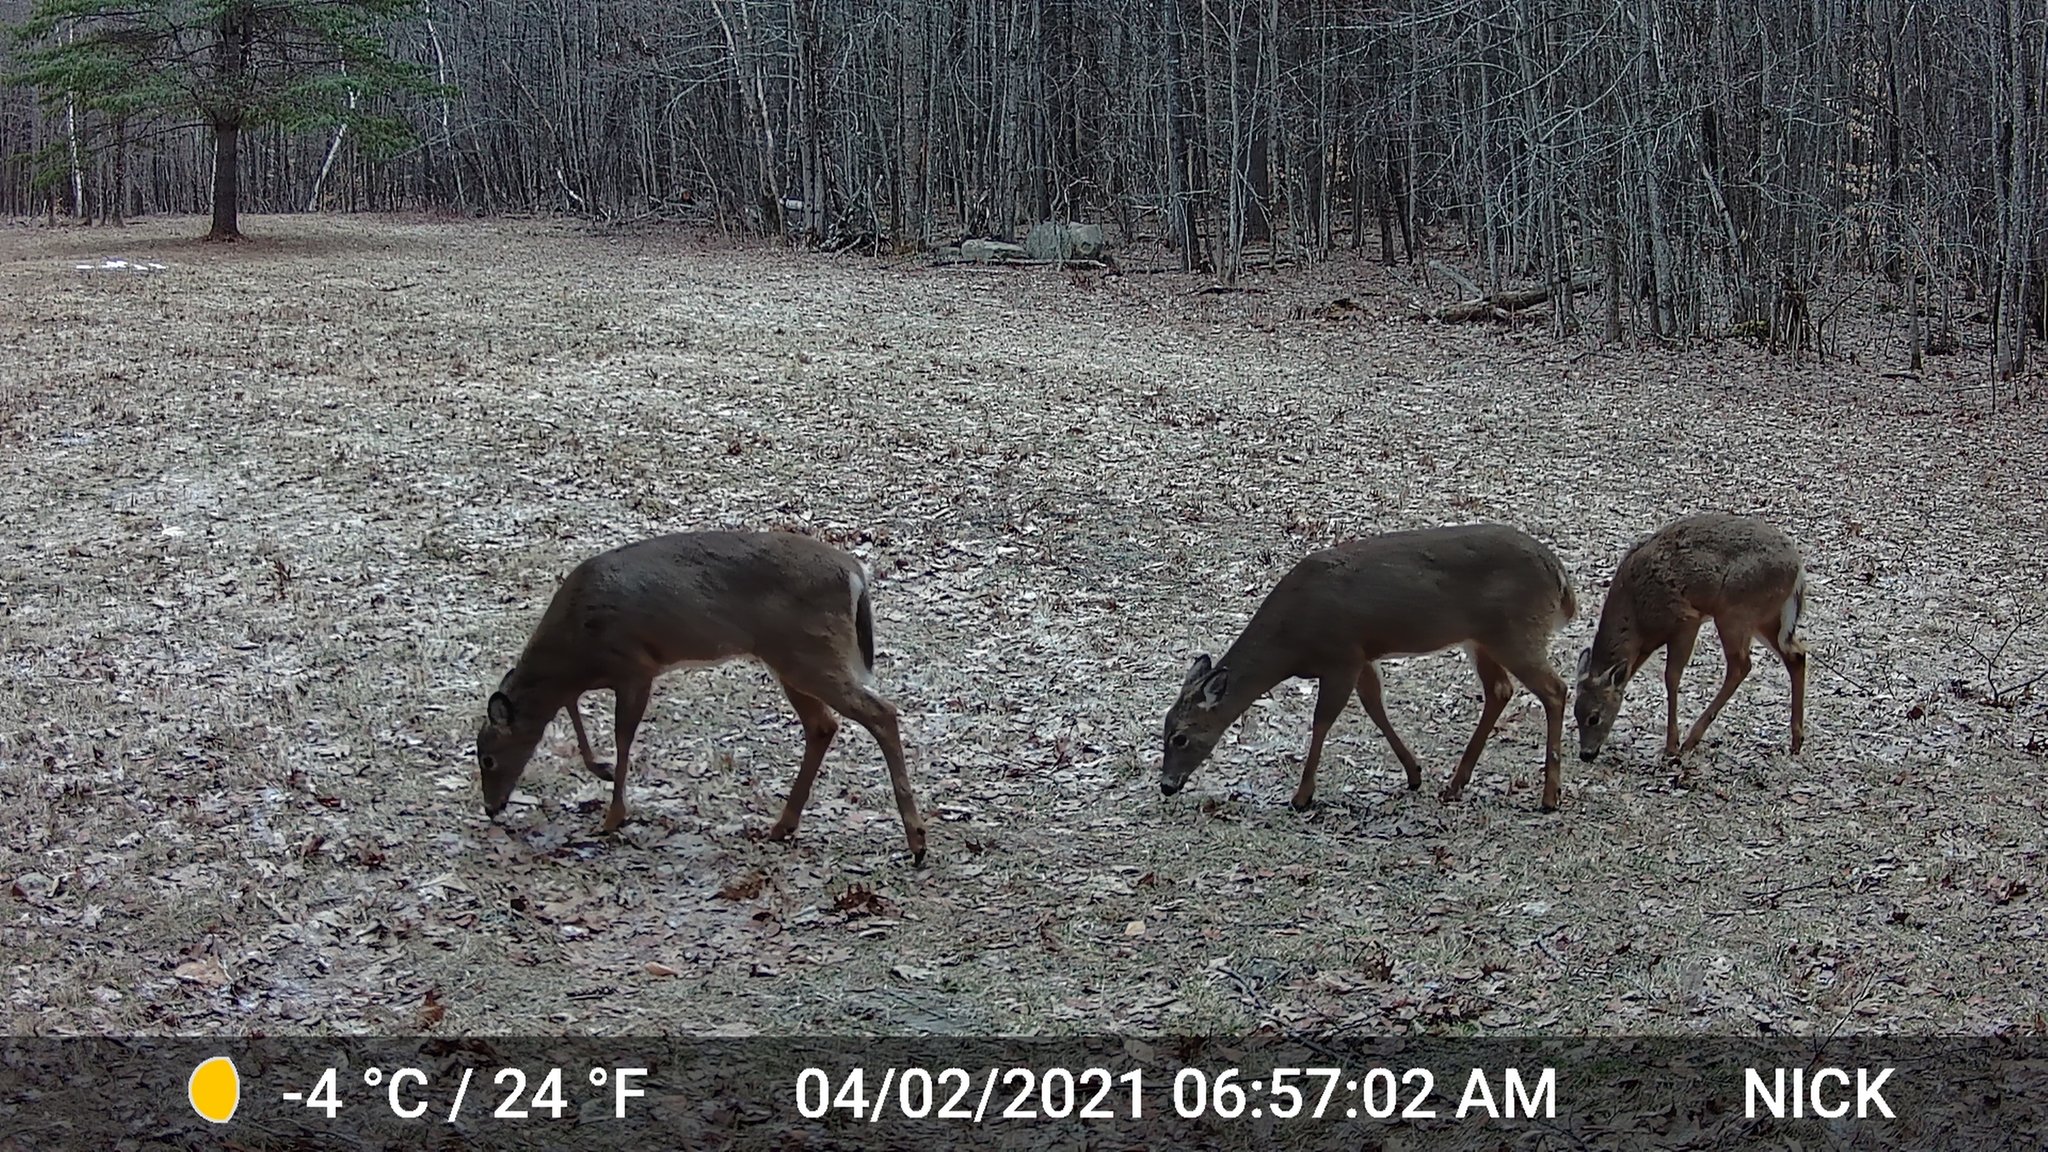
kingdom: Animalia
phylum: Chordata
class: Mammalia
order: Artiodactyla
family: Cervidae
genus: Odocoileus
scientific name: Odocoileus virginianus
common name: White-tailed deer
